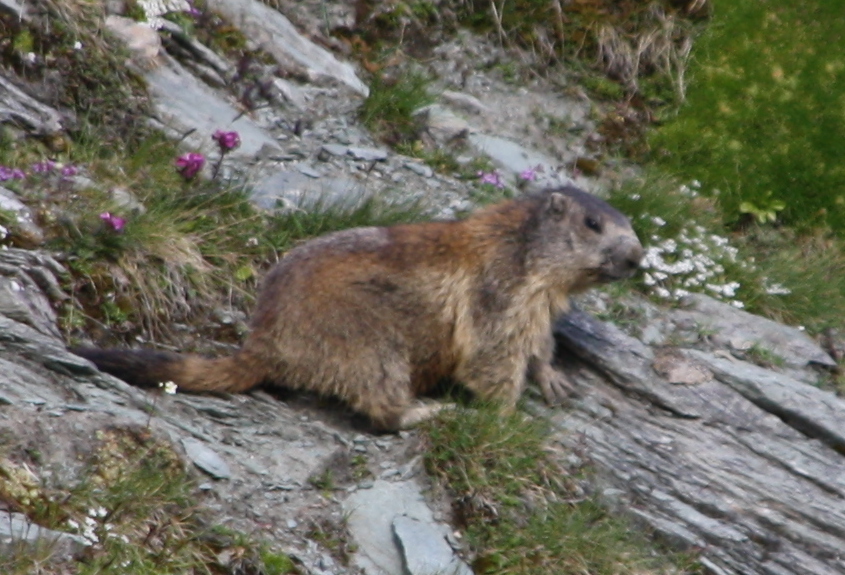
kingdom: Animalia
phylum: Chordata
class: Mammalia
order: Rodentia
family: Sciuridae
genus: Marmota
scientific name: Marmota marmota
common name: Alpine marmot
